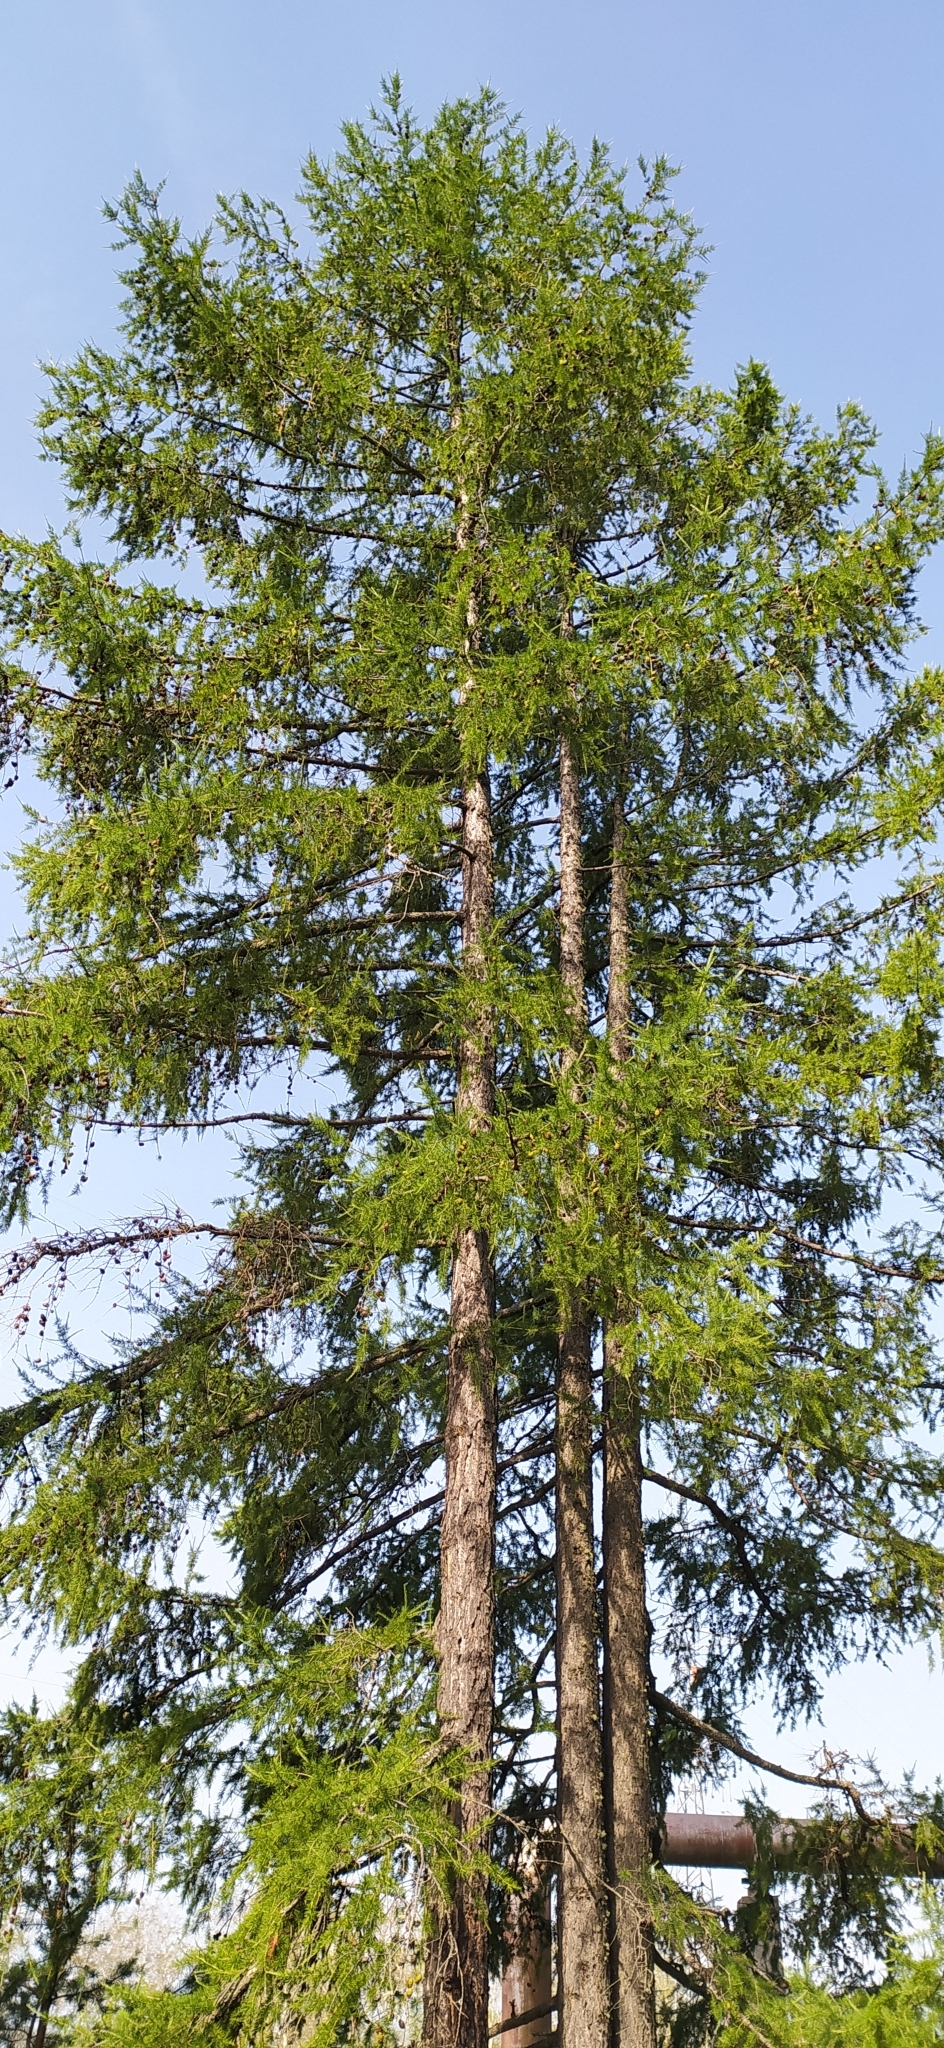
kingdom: Plantae
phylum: Tracheophyta
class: Pinopsida
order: Pinales
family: Pinaceae
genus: Larix
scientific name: Larix sibirica
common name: Siberian larch
